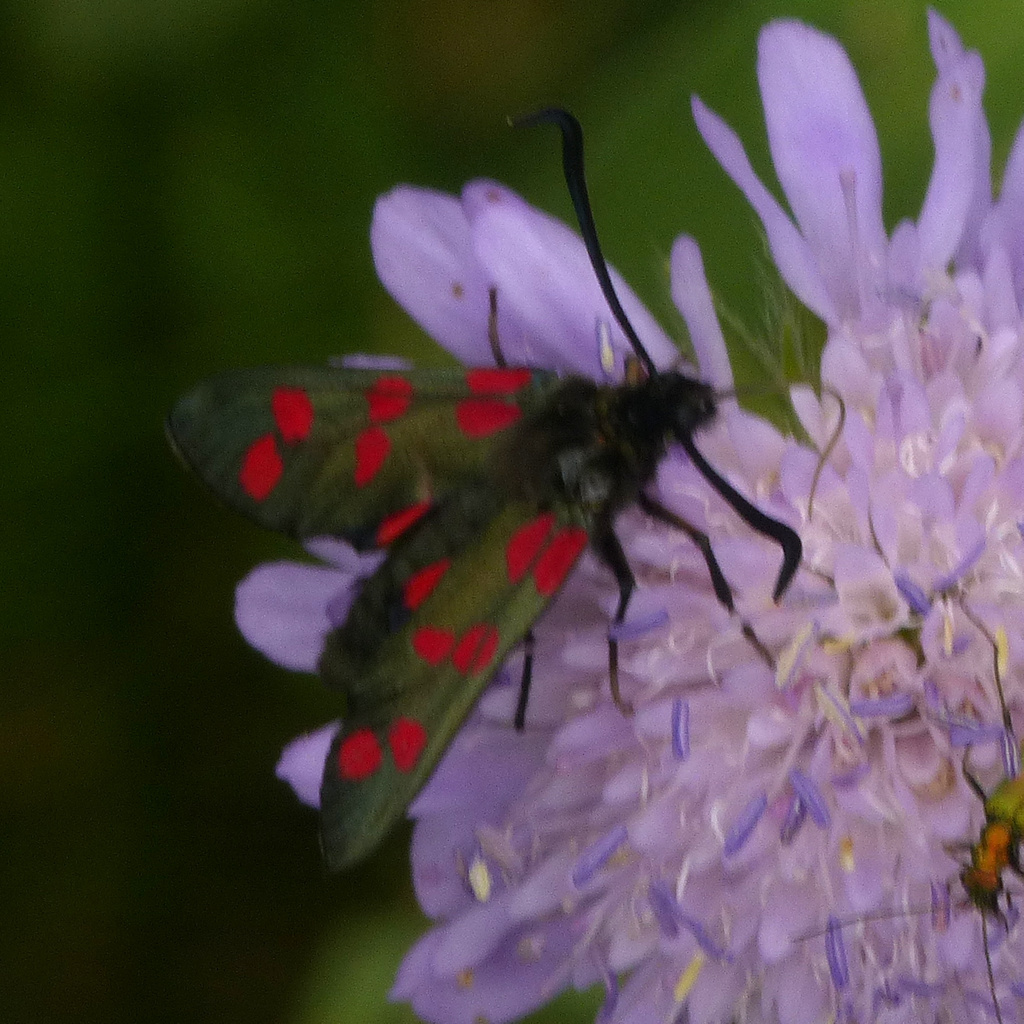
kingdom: Animalia
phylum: Arthropoda
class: Insecta
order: Lepidoptera
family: Zygaenidae
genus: Zygaena
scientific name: Zygaena filipendulae
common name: Six-spot burnet
